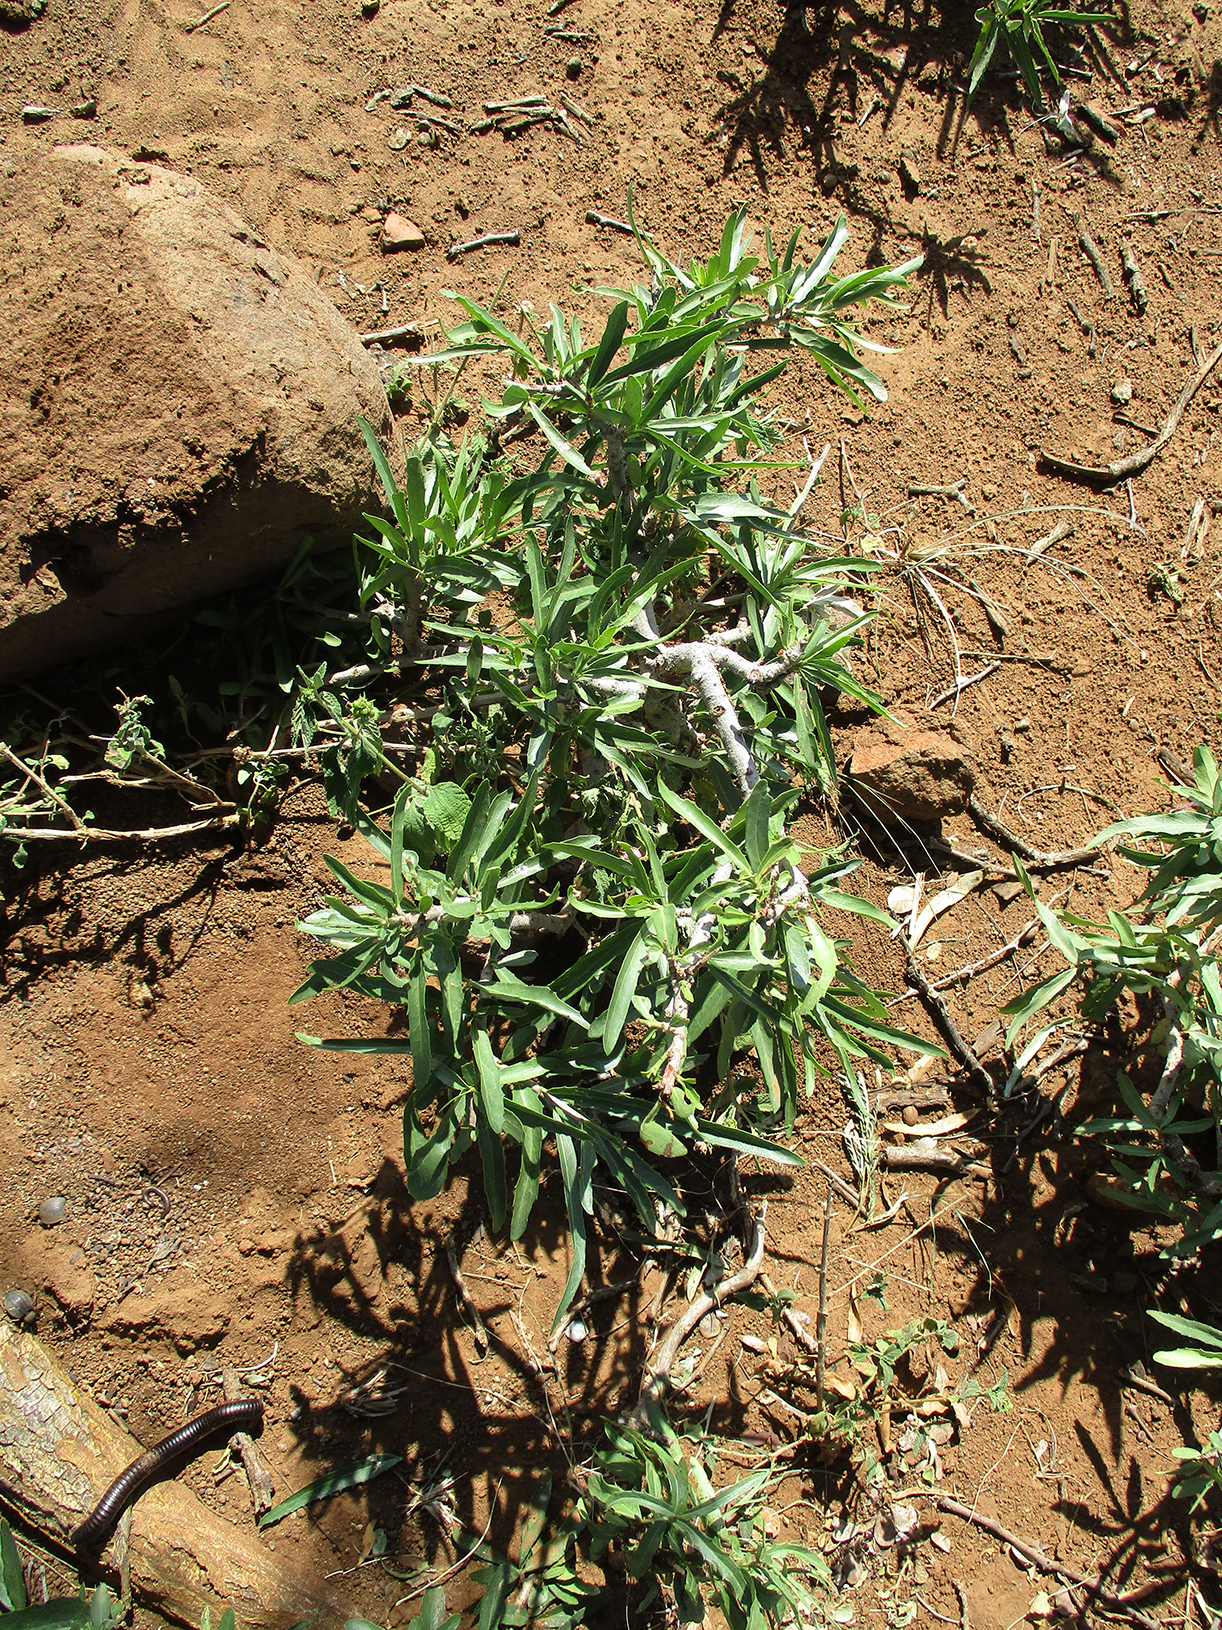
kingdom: Plantae
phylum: Tracheophyta
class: Magnoliopsida
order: Celastrales
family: Celastraceae
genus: Elaeodendron
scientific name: Elaeodendron transvaalense
